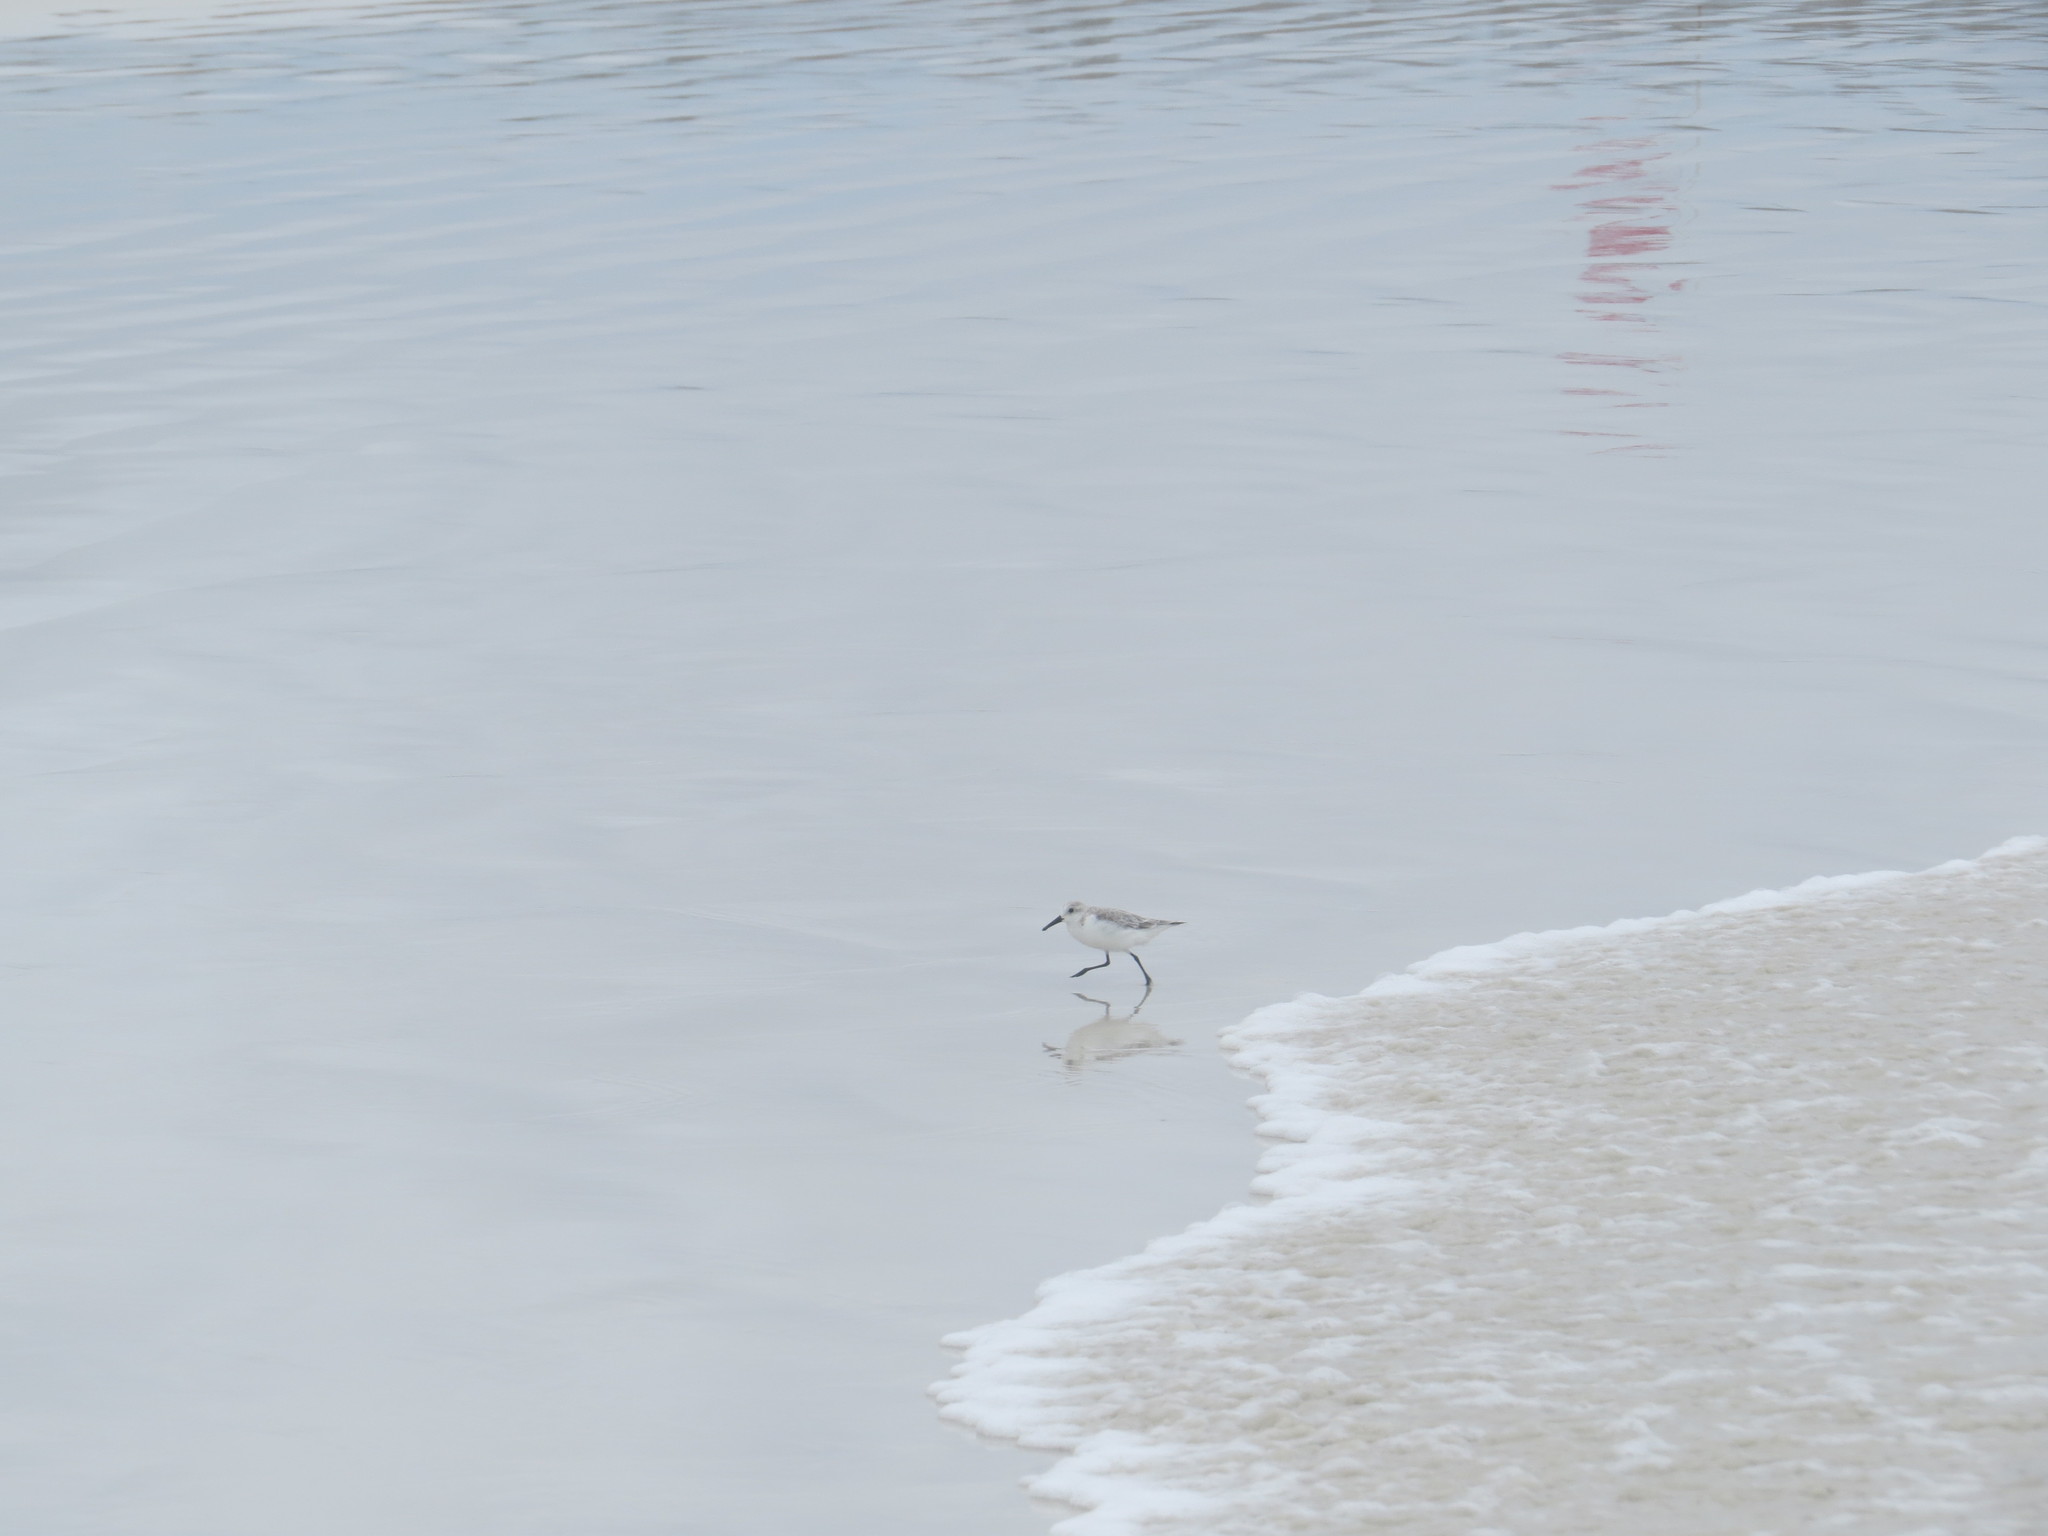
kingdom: Animalia
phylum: Chordata
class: Aves
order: Charadriiformes
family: Scolopacidae
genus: Calidris
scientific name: Calidris alba
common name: Sanderling
